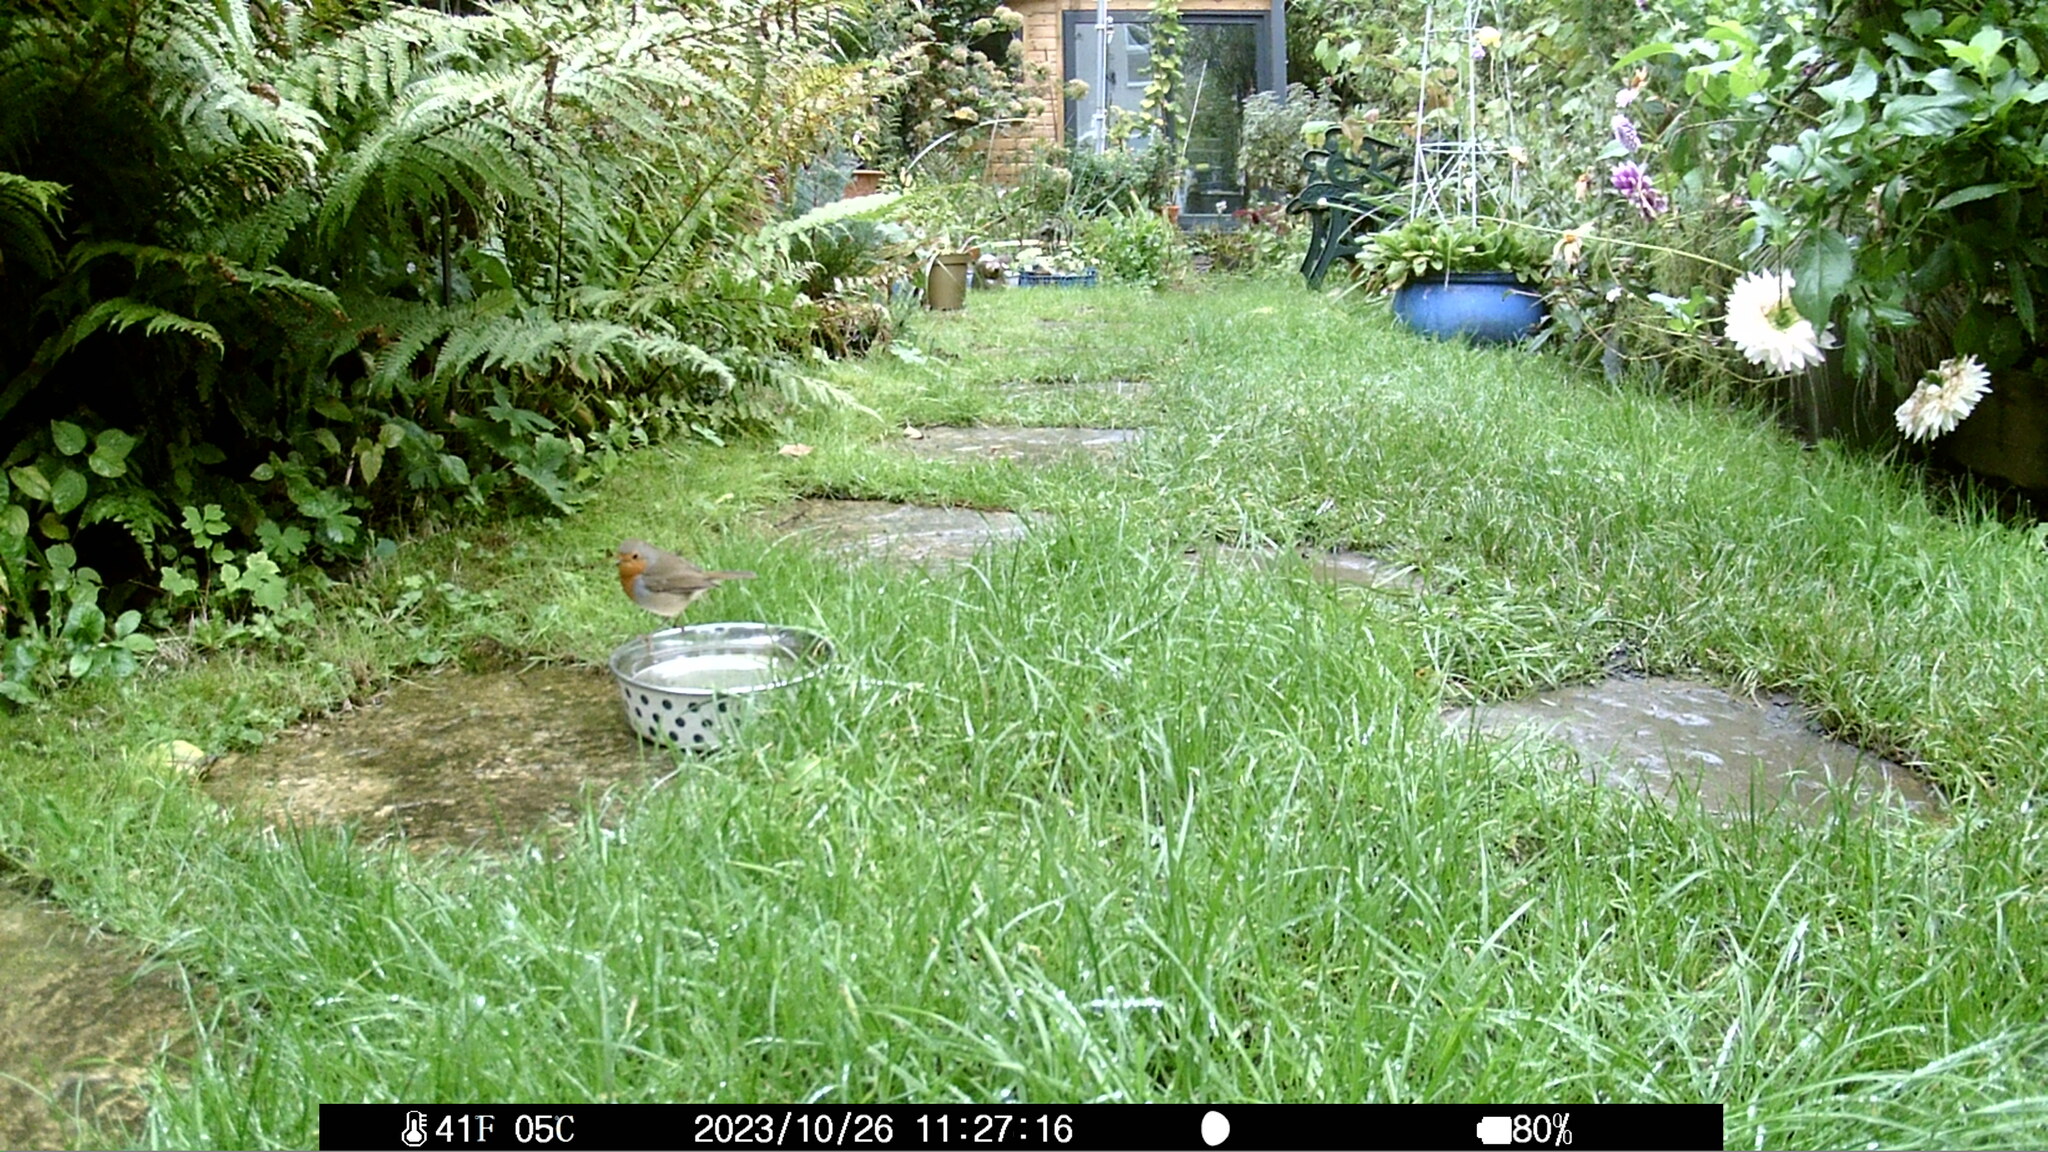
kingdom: Animalia
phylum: Chordata
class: Aves
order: Passeriformes
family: Muscicapidae
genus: Erithacus
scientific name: Erithacus rubecula
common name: European robin
